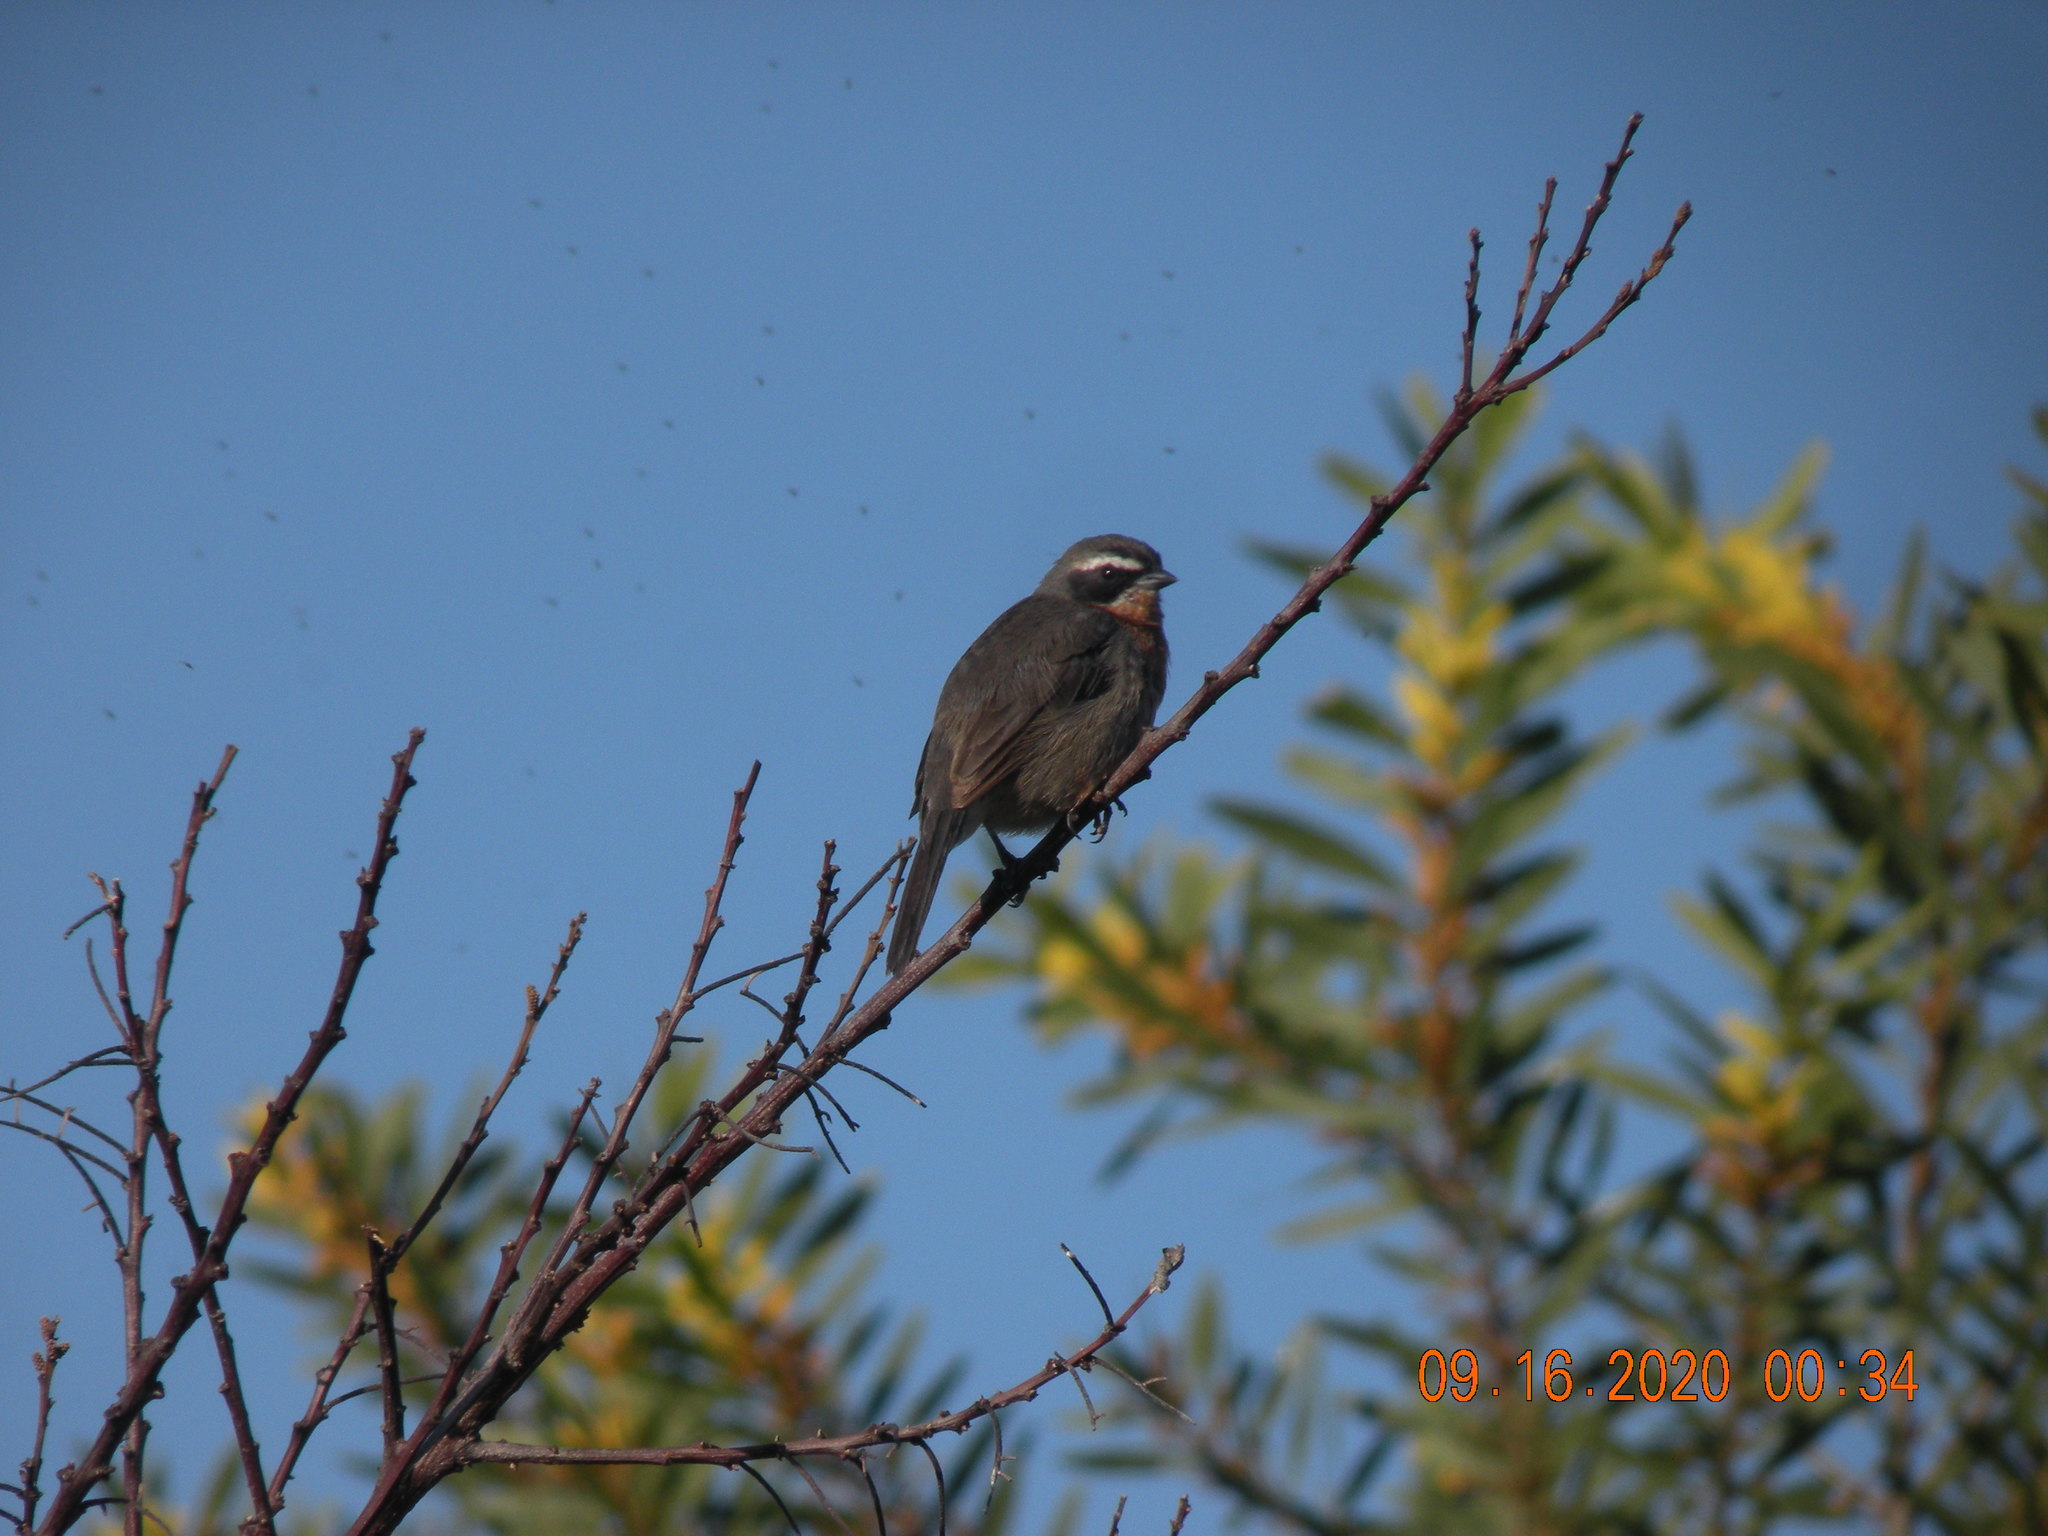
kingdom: Animalia
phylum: Chordata
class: Aves
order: Passeriformes
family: Thraupidae
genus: Poospiza
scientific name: Poospiza nigrorufa
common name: Black-and-rufous warbling finch
